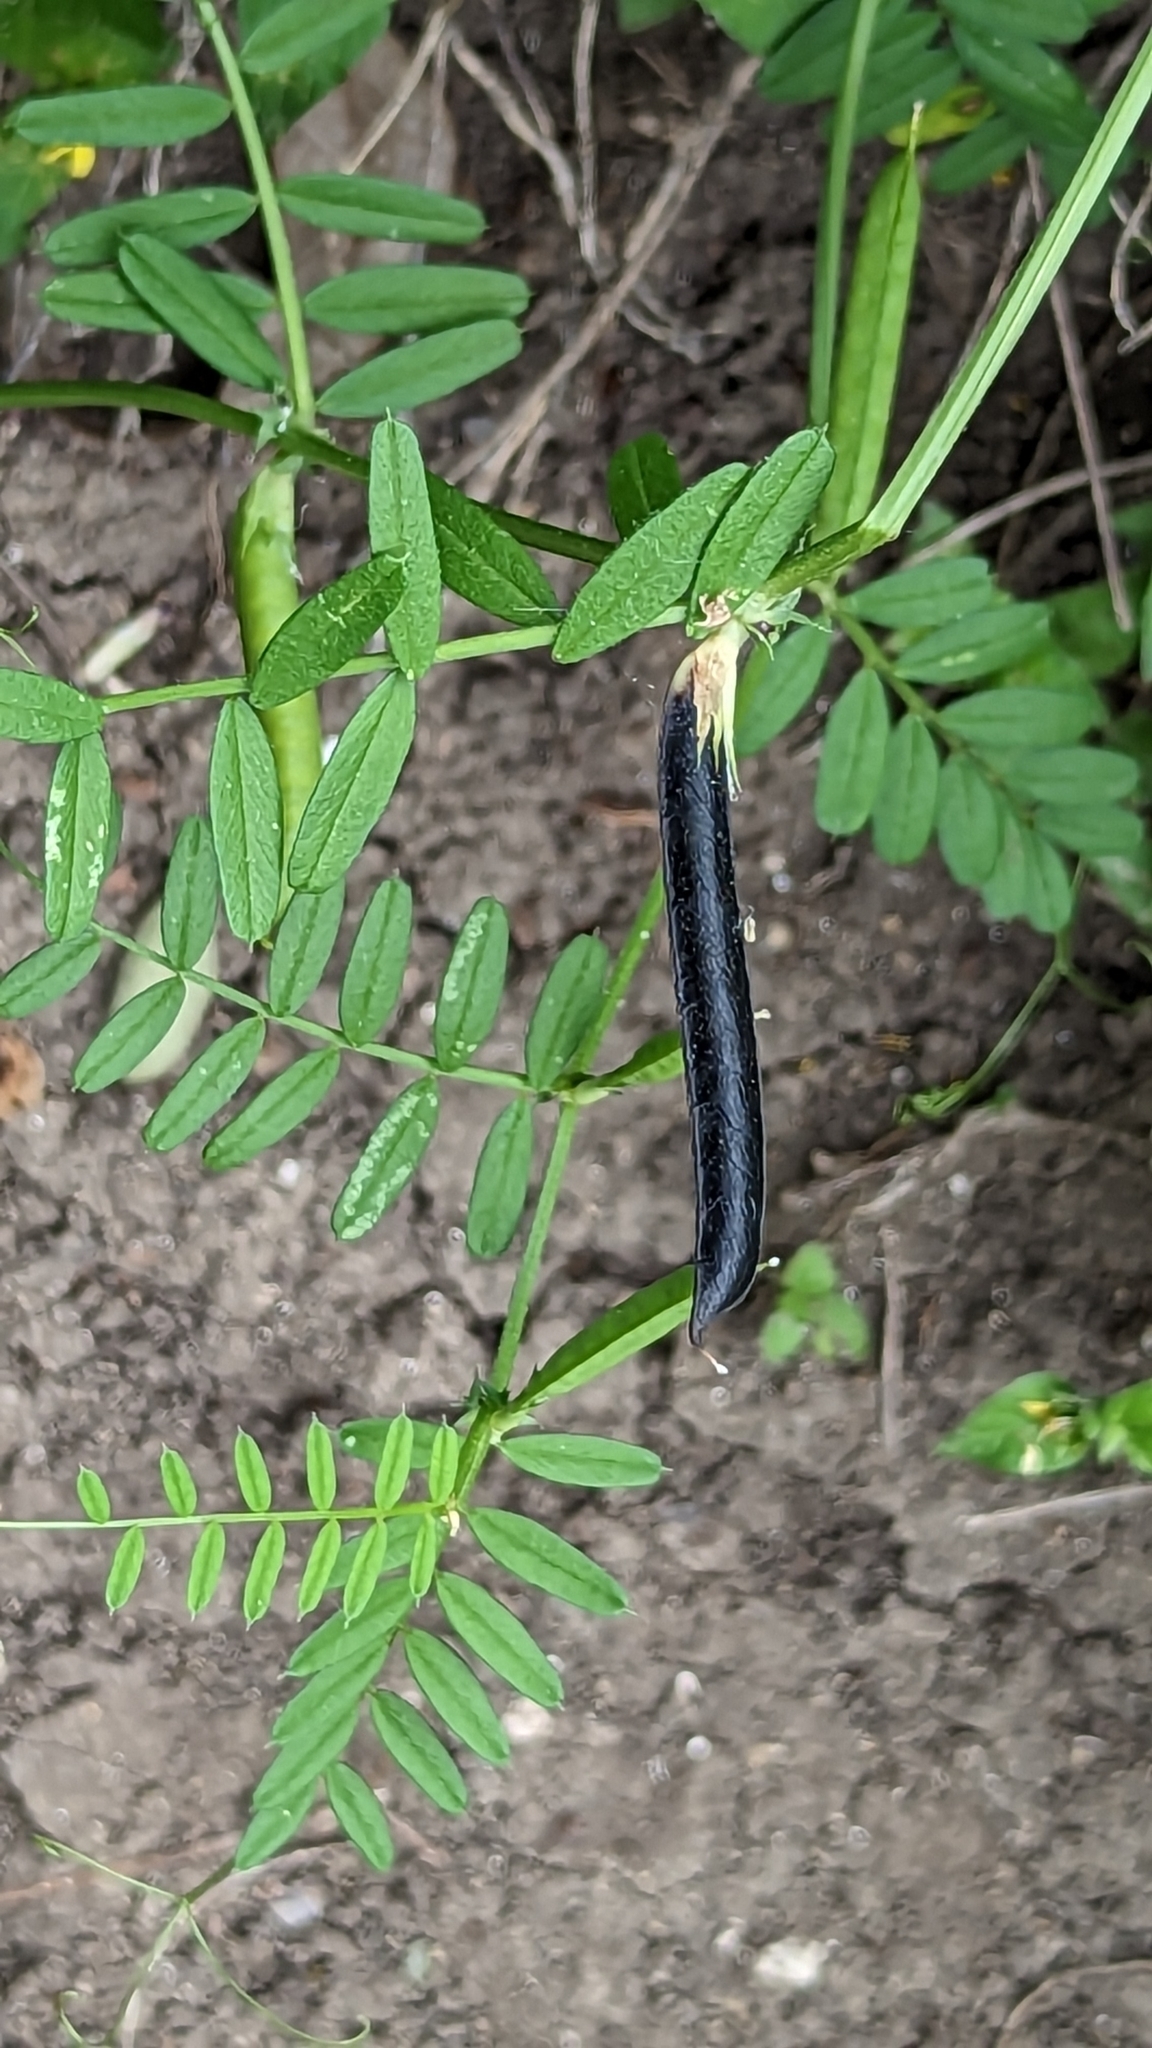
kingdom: Plantae
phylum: Tracheophyta
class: Magnoliopsida
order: Fabales
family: Fabaceae
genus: Vicia
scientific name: Vicia sativa
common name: Garden vetch
